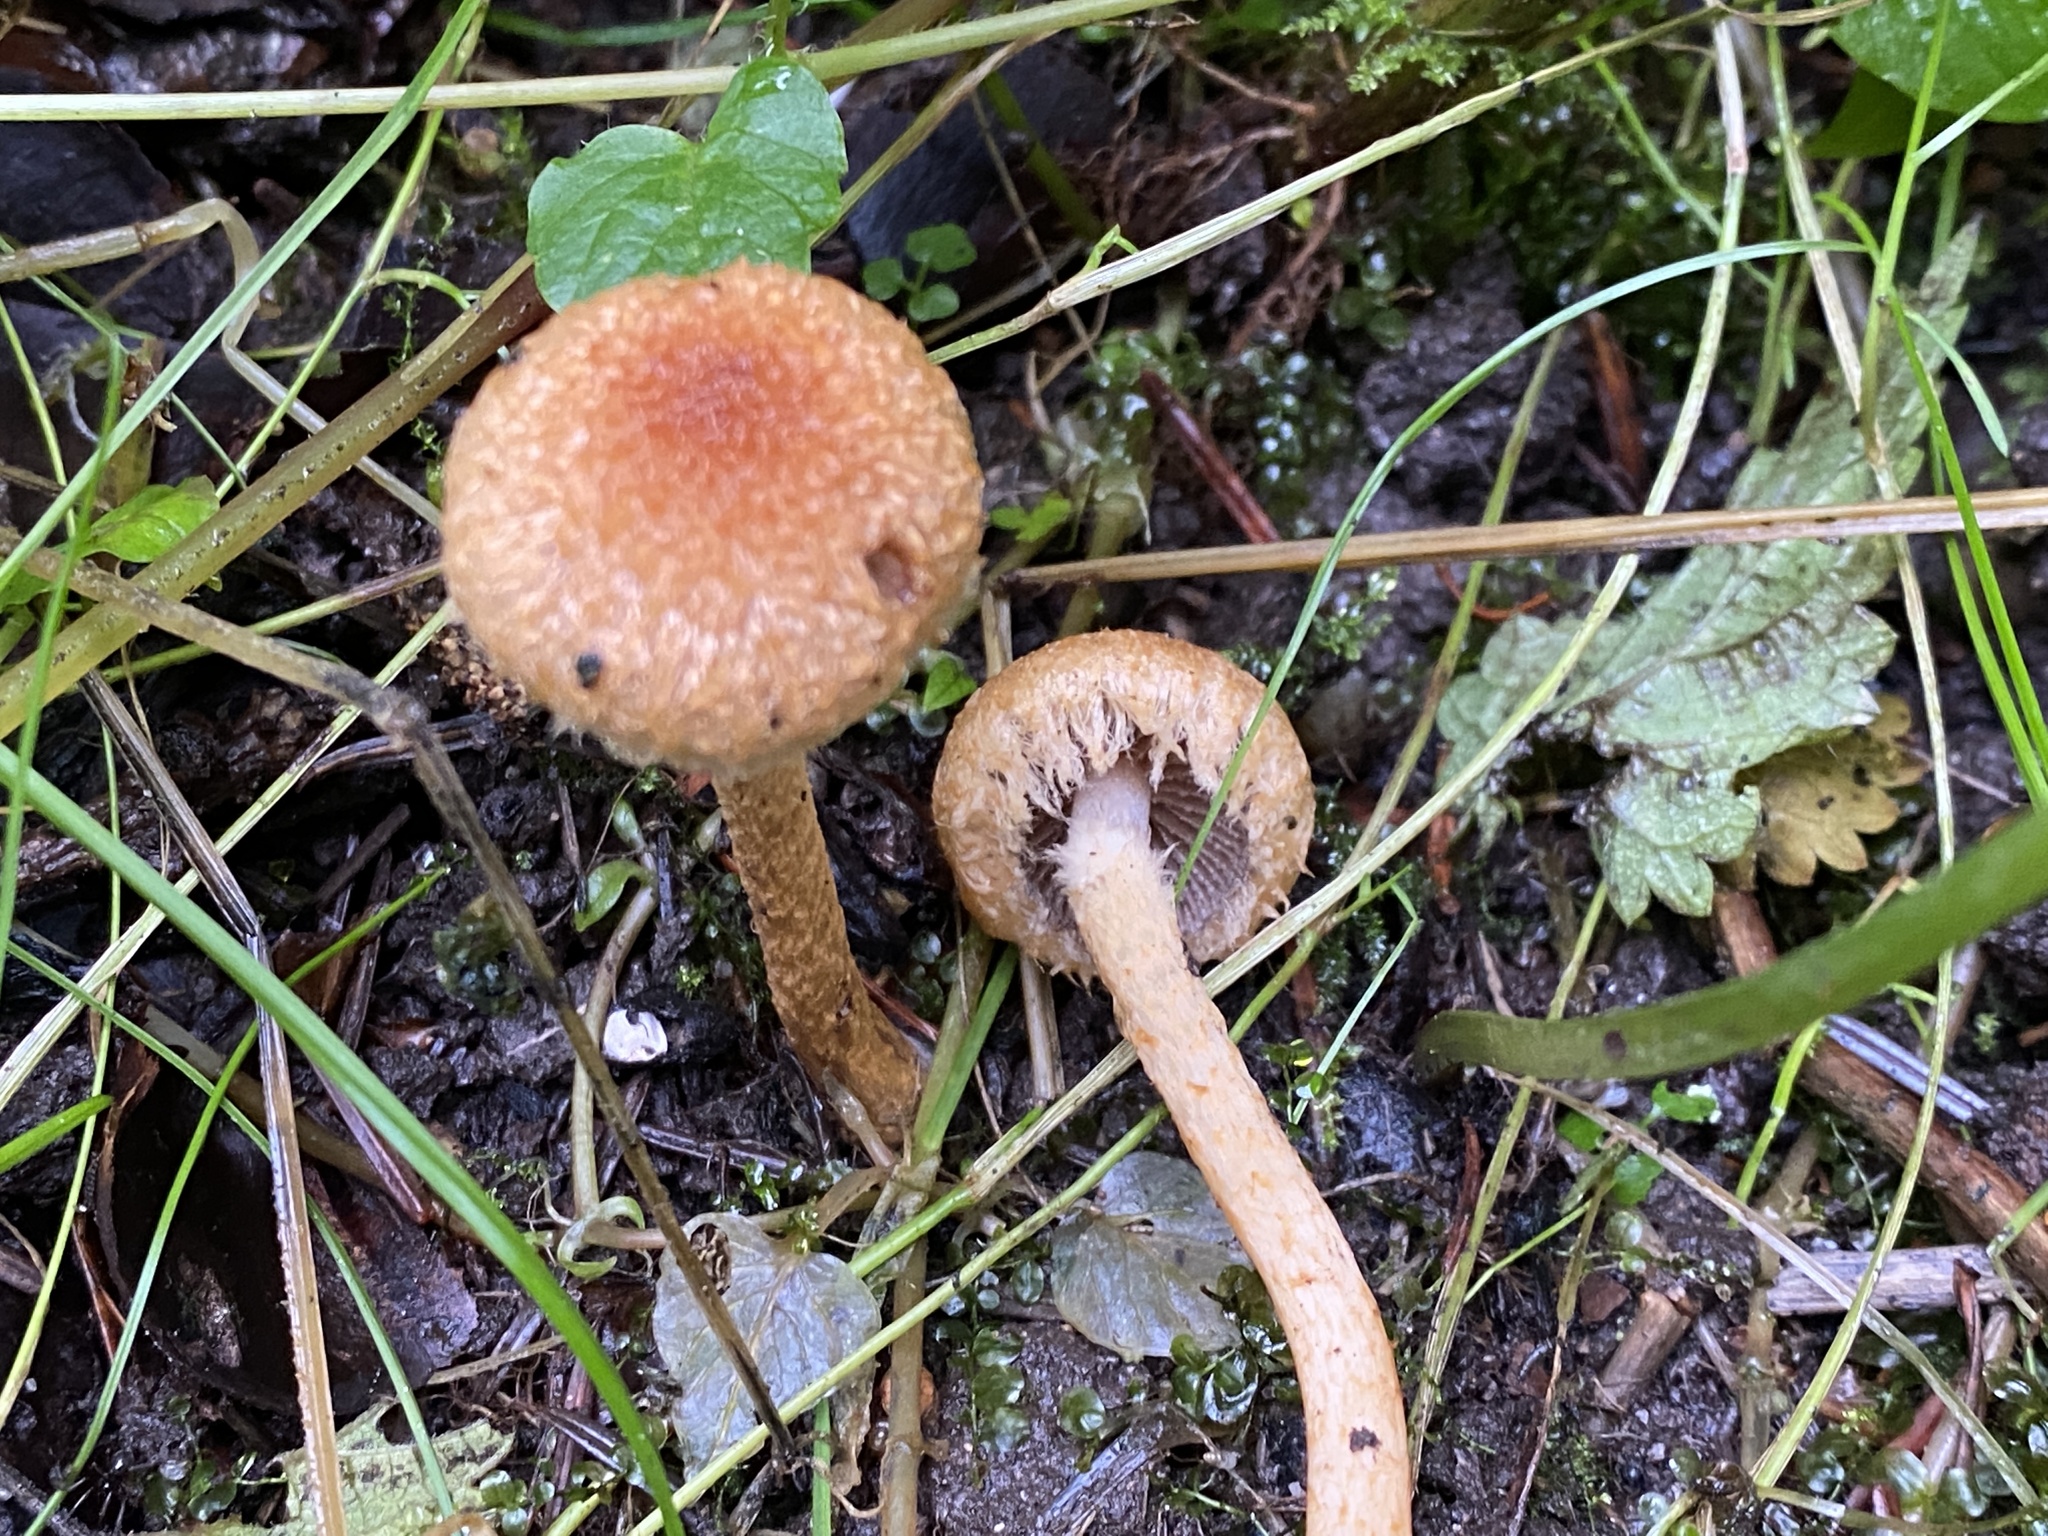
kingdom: Fungi
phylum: Basidiomycota
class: Agaricomycetes
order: Agaricales
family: Psathyrellaceae
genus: Lacrymaria
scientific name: Lacrymaria pyrotricha
